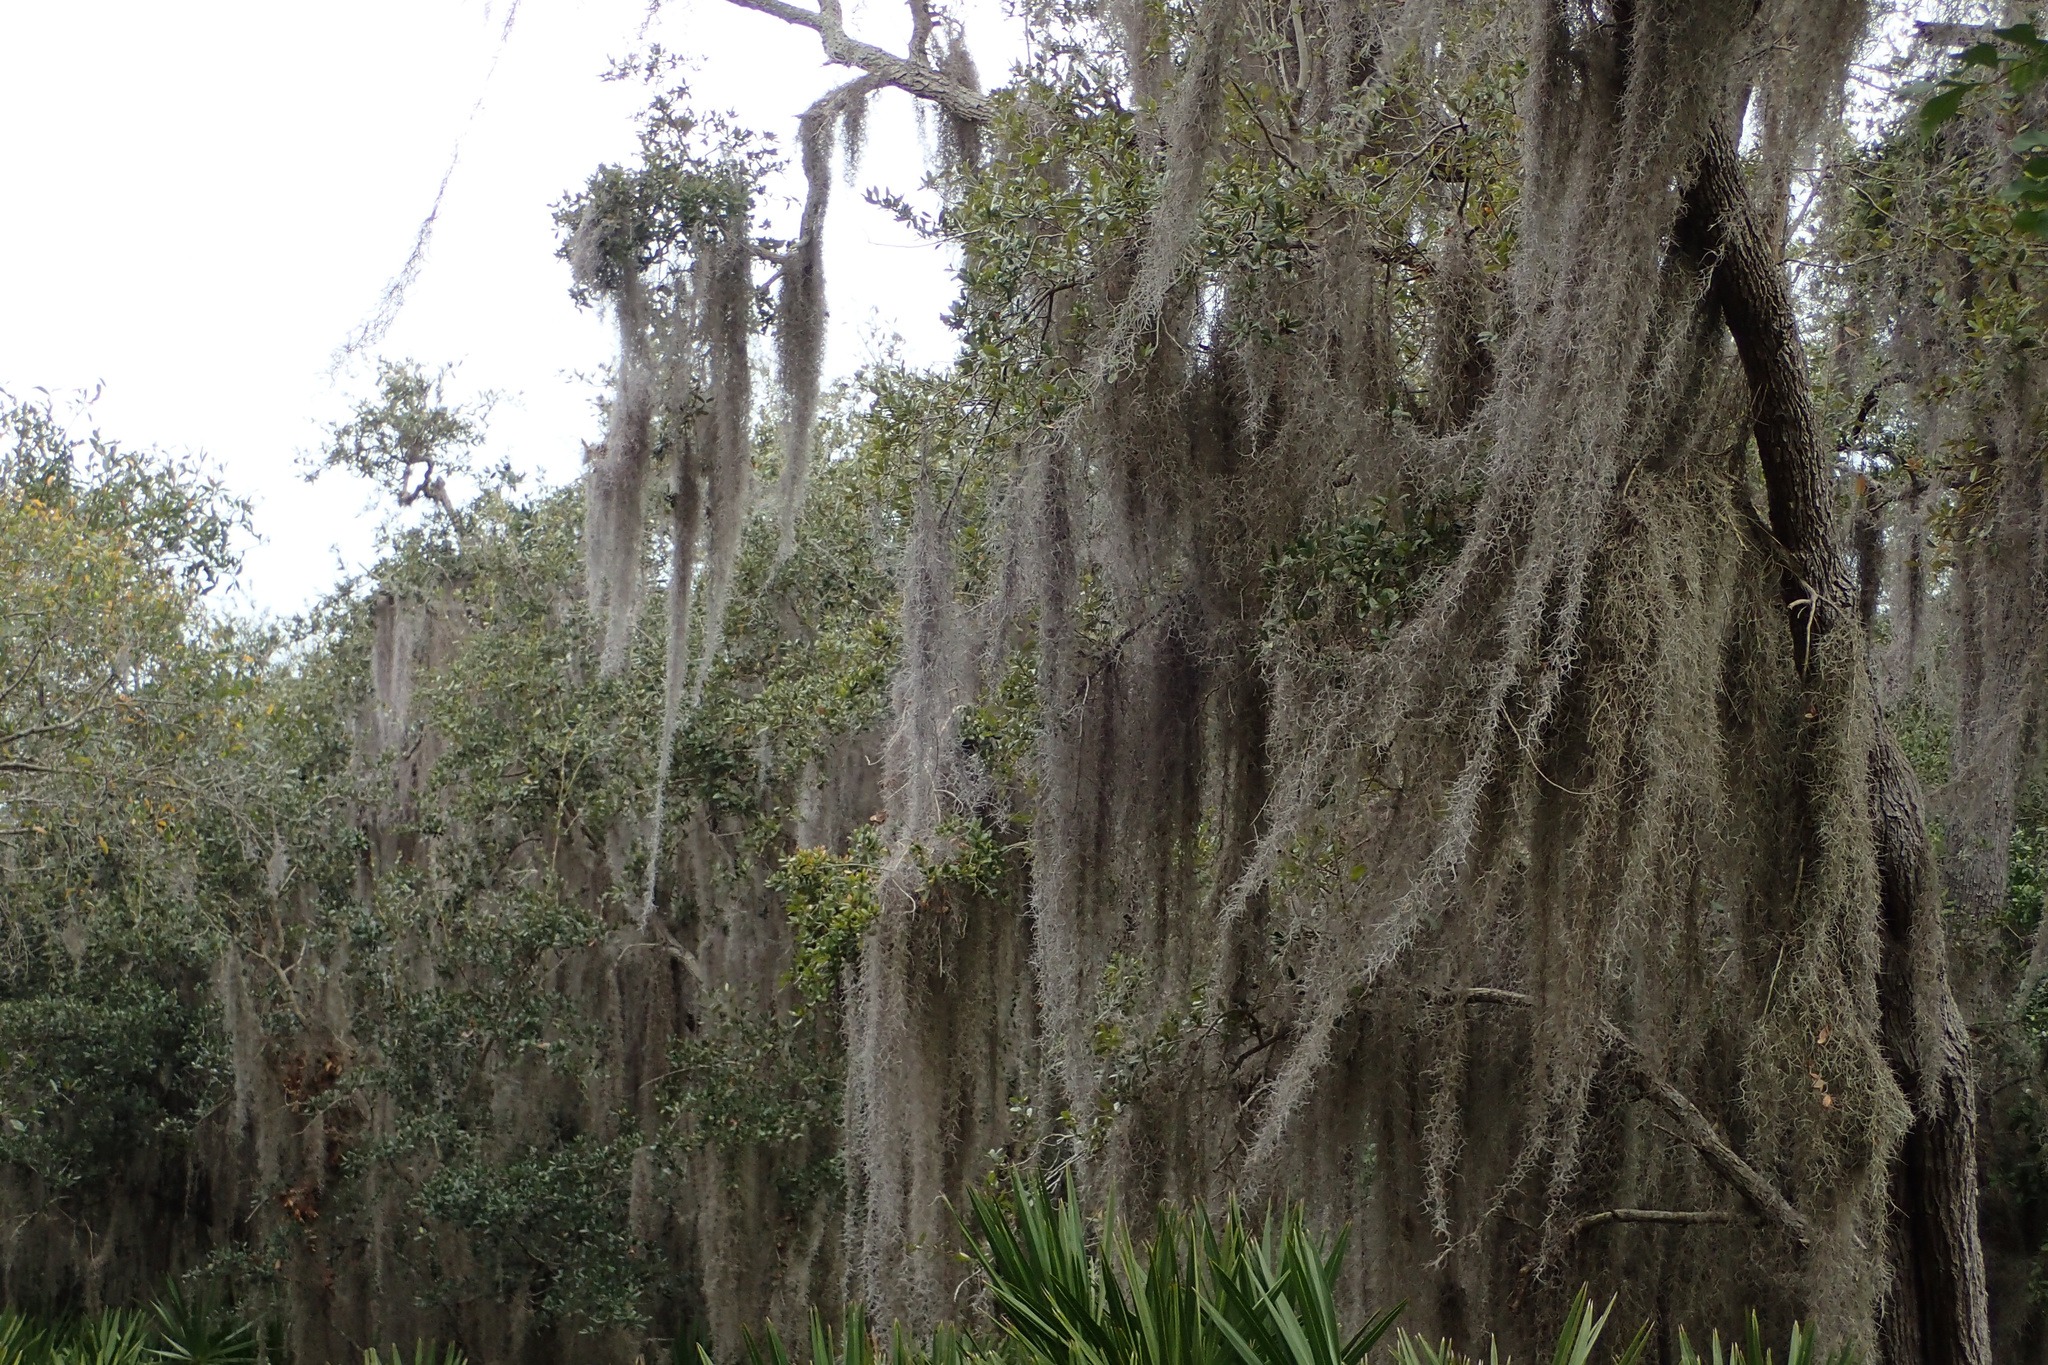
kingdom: Plantae
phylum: Tracheophyta
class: Liliopsida
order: Poales
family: Bromeliaceae
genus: Tillandsia
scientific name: Tillandsia usneoides
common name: Spanish moss
